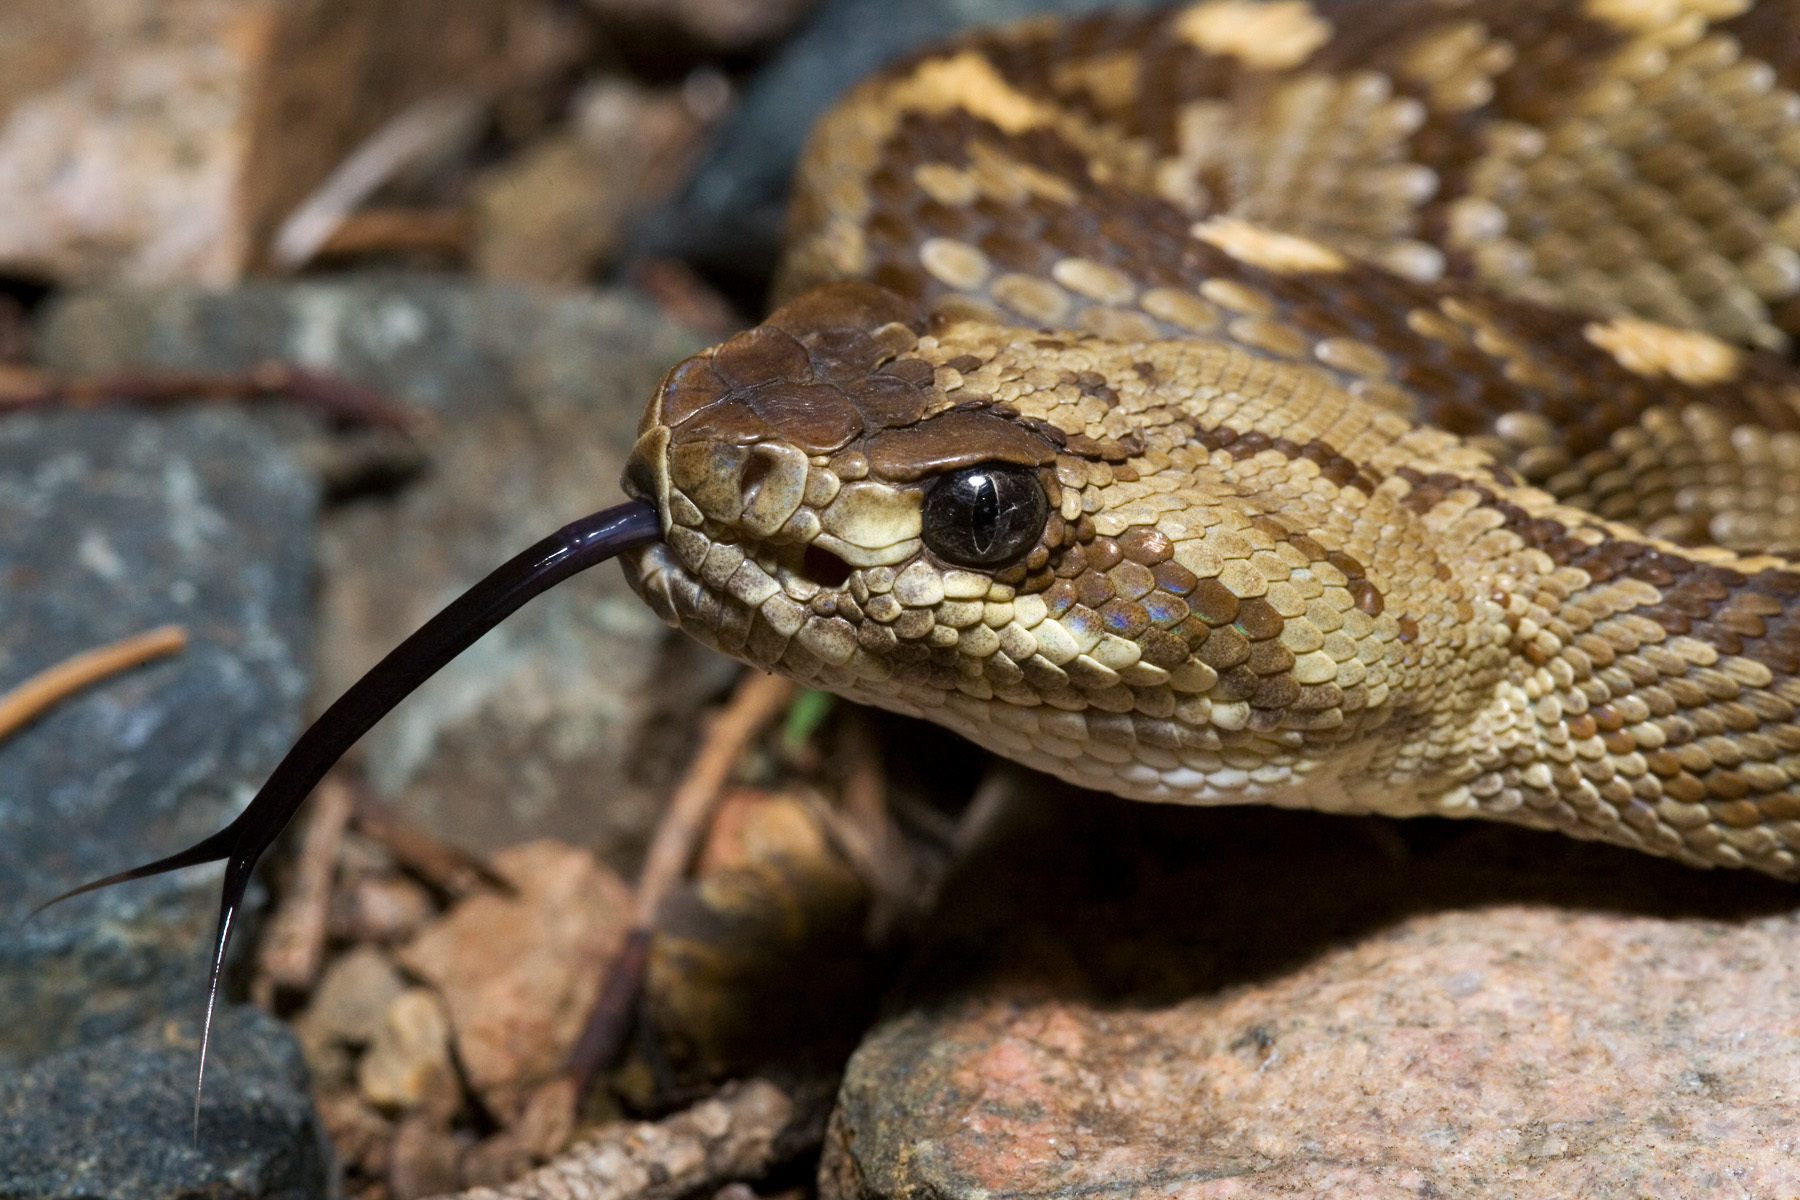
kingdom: Animalia
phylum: Chordata
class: Squamata
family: Viperidae
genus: Crotalus
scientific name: Crotalus ornatus
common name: Black-tailed rattlesnake
